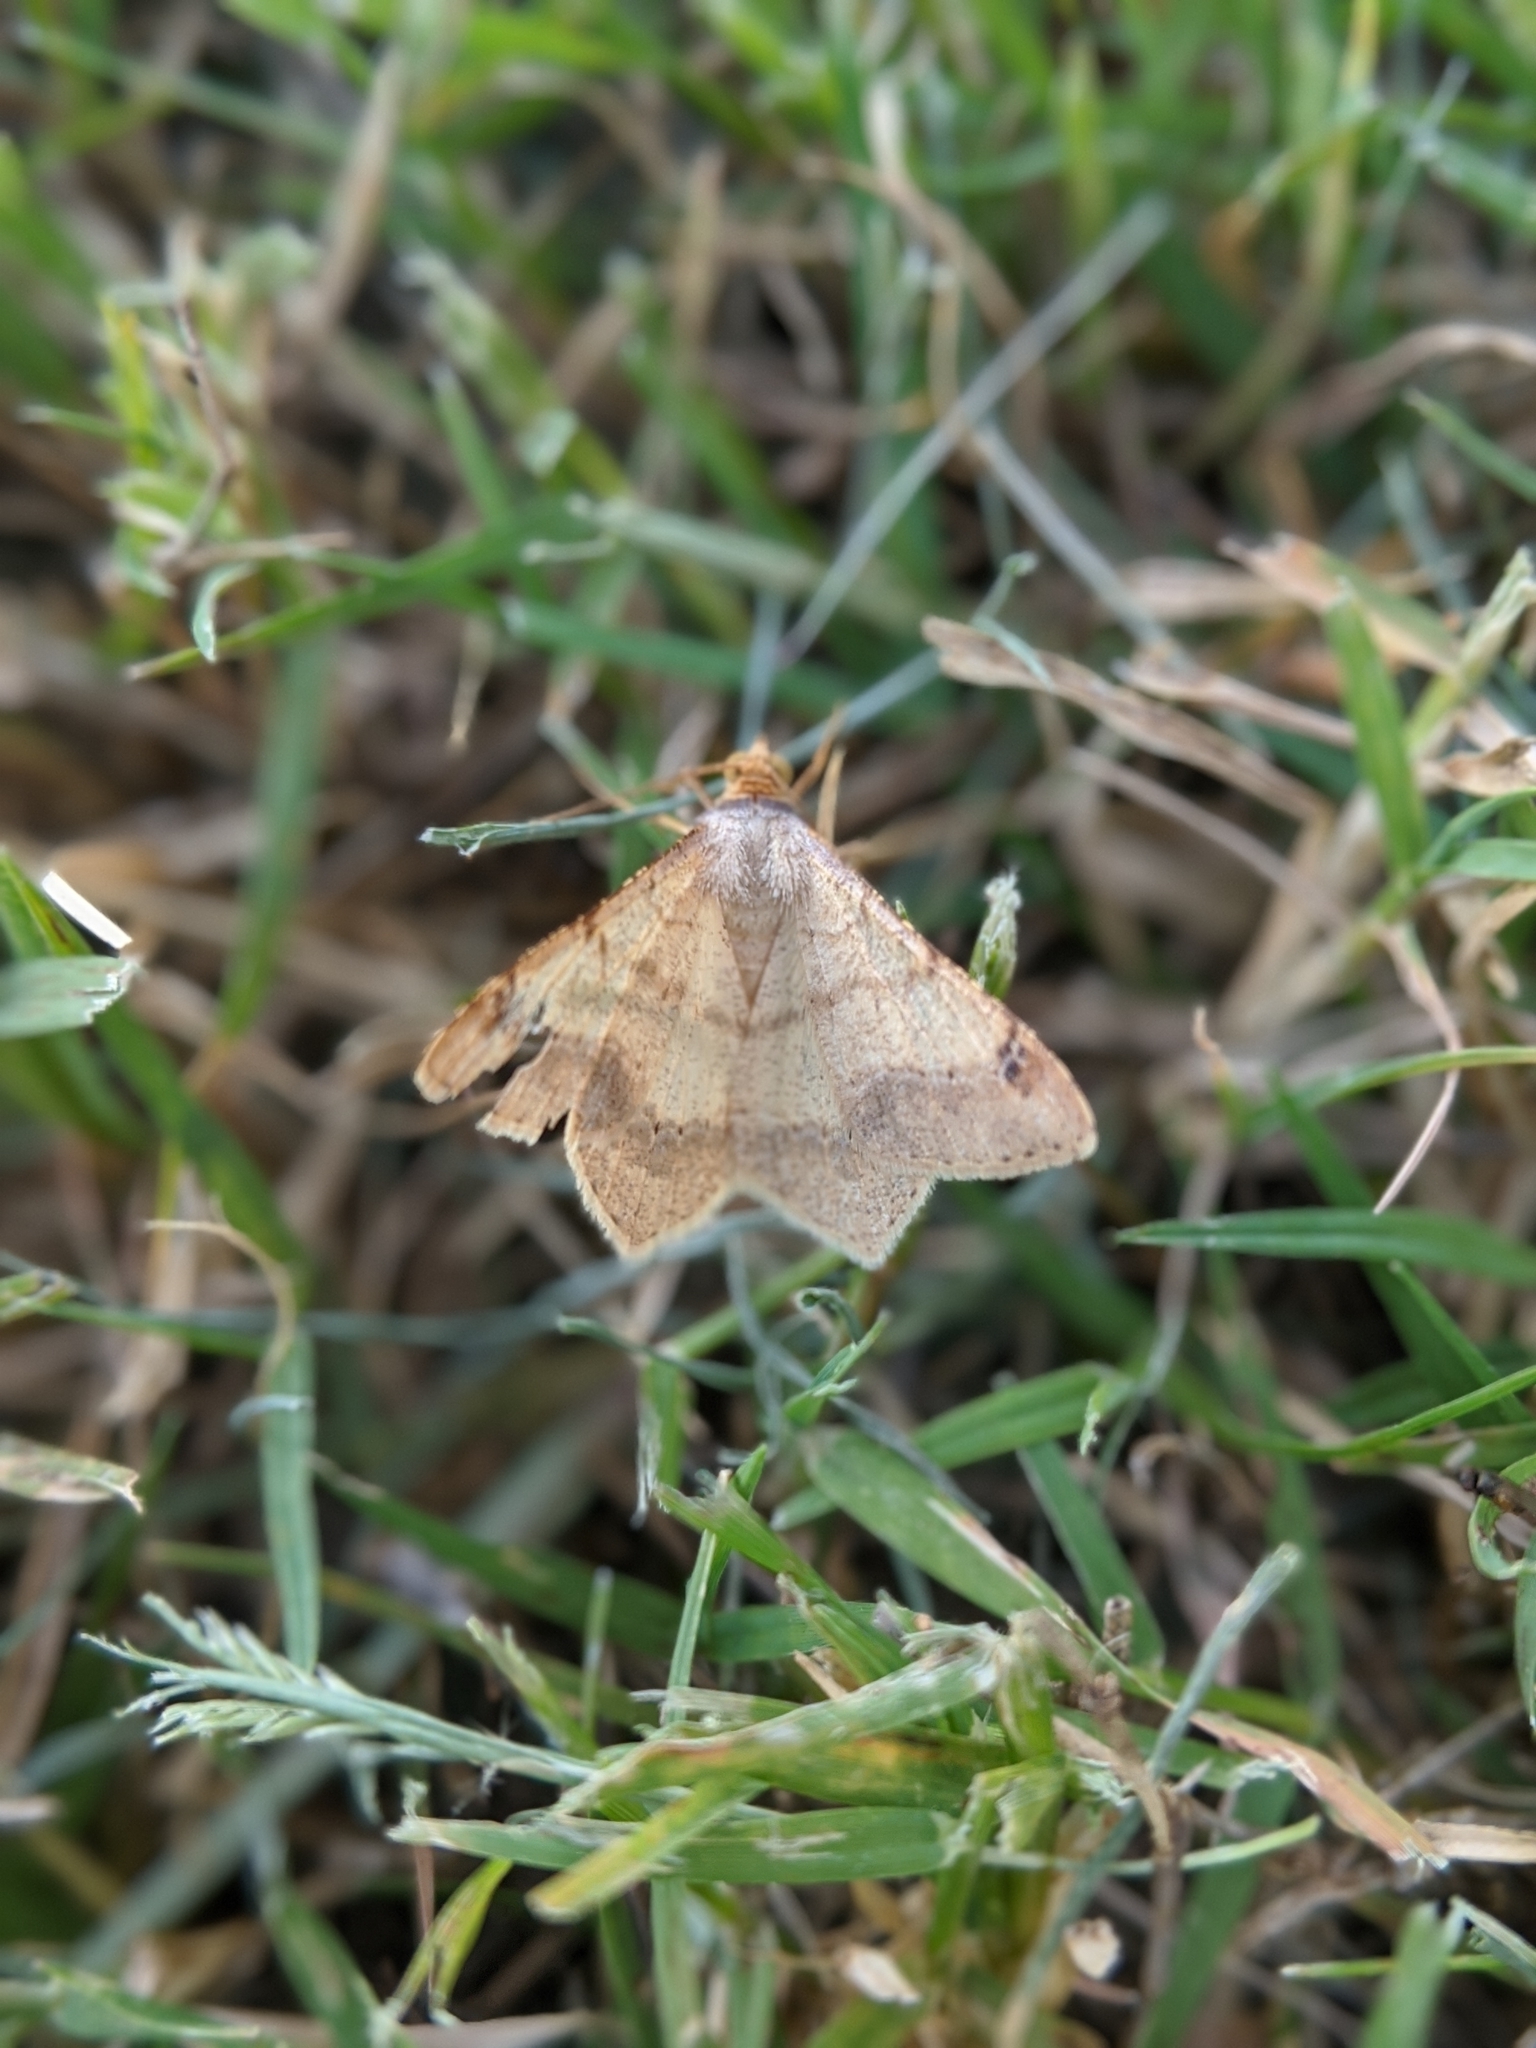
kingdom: Animalia
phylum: Arthropoda
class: Insecta
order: Lepidoptera
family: Geometridae
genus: Macaria
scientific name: Macaria abydata
